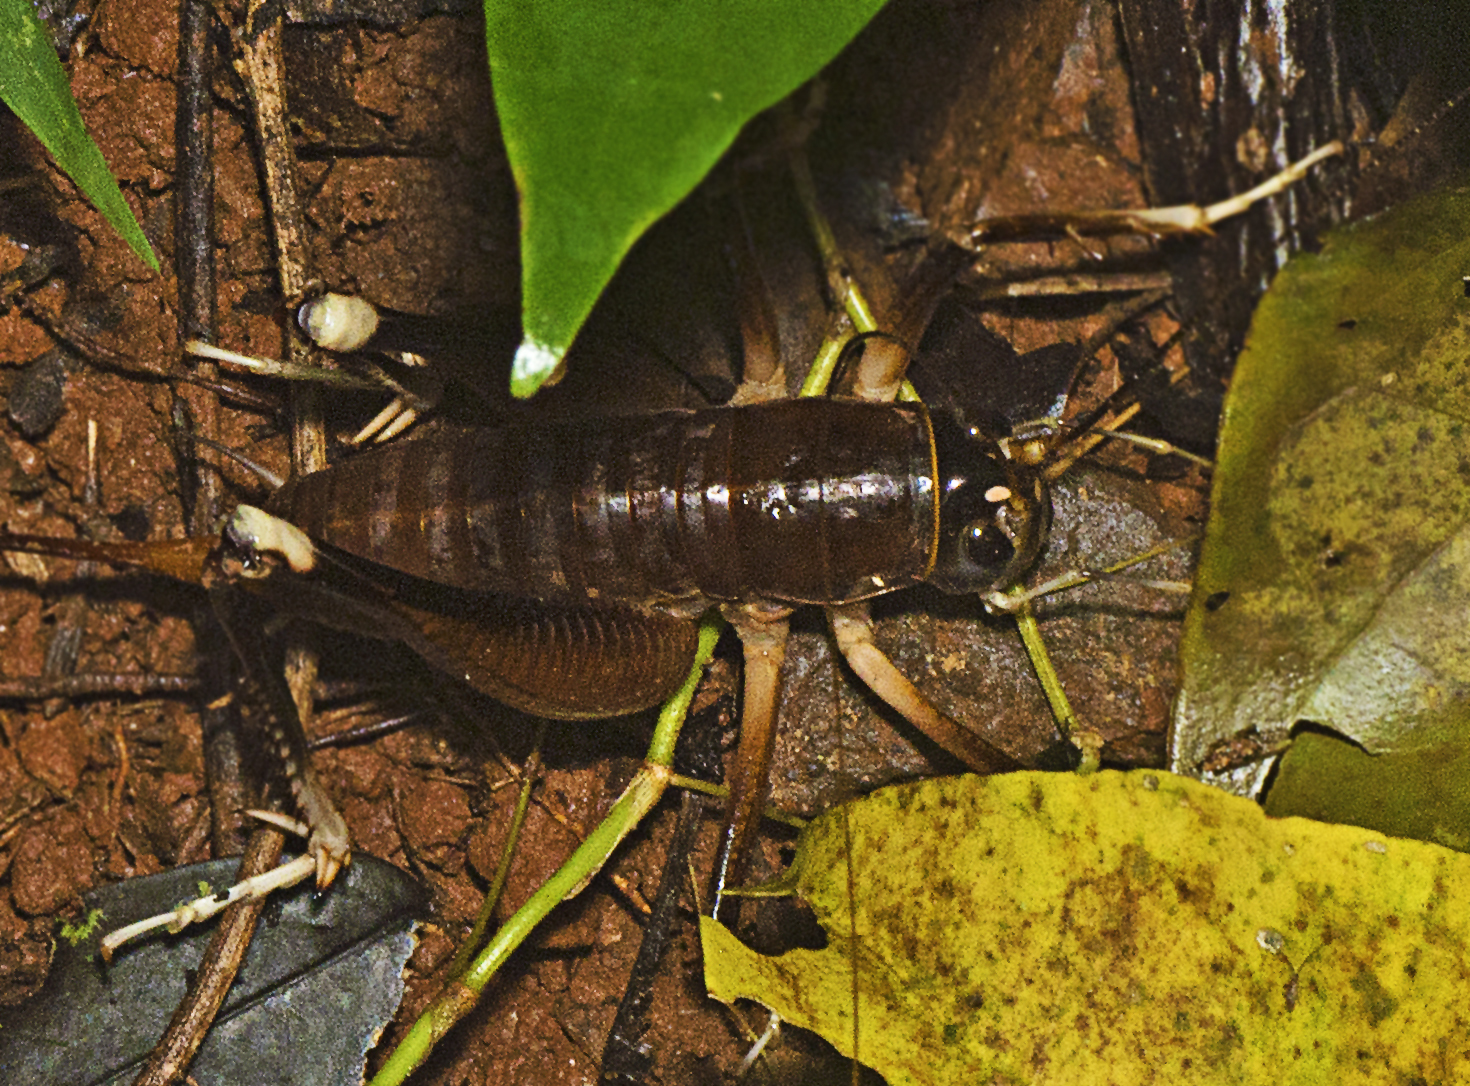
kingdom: Animalia
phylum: Arthropoda
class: Insecta
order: Orthoptera
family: Anostostomatidae
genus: Penalva
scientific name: Penalva flavocalceata
